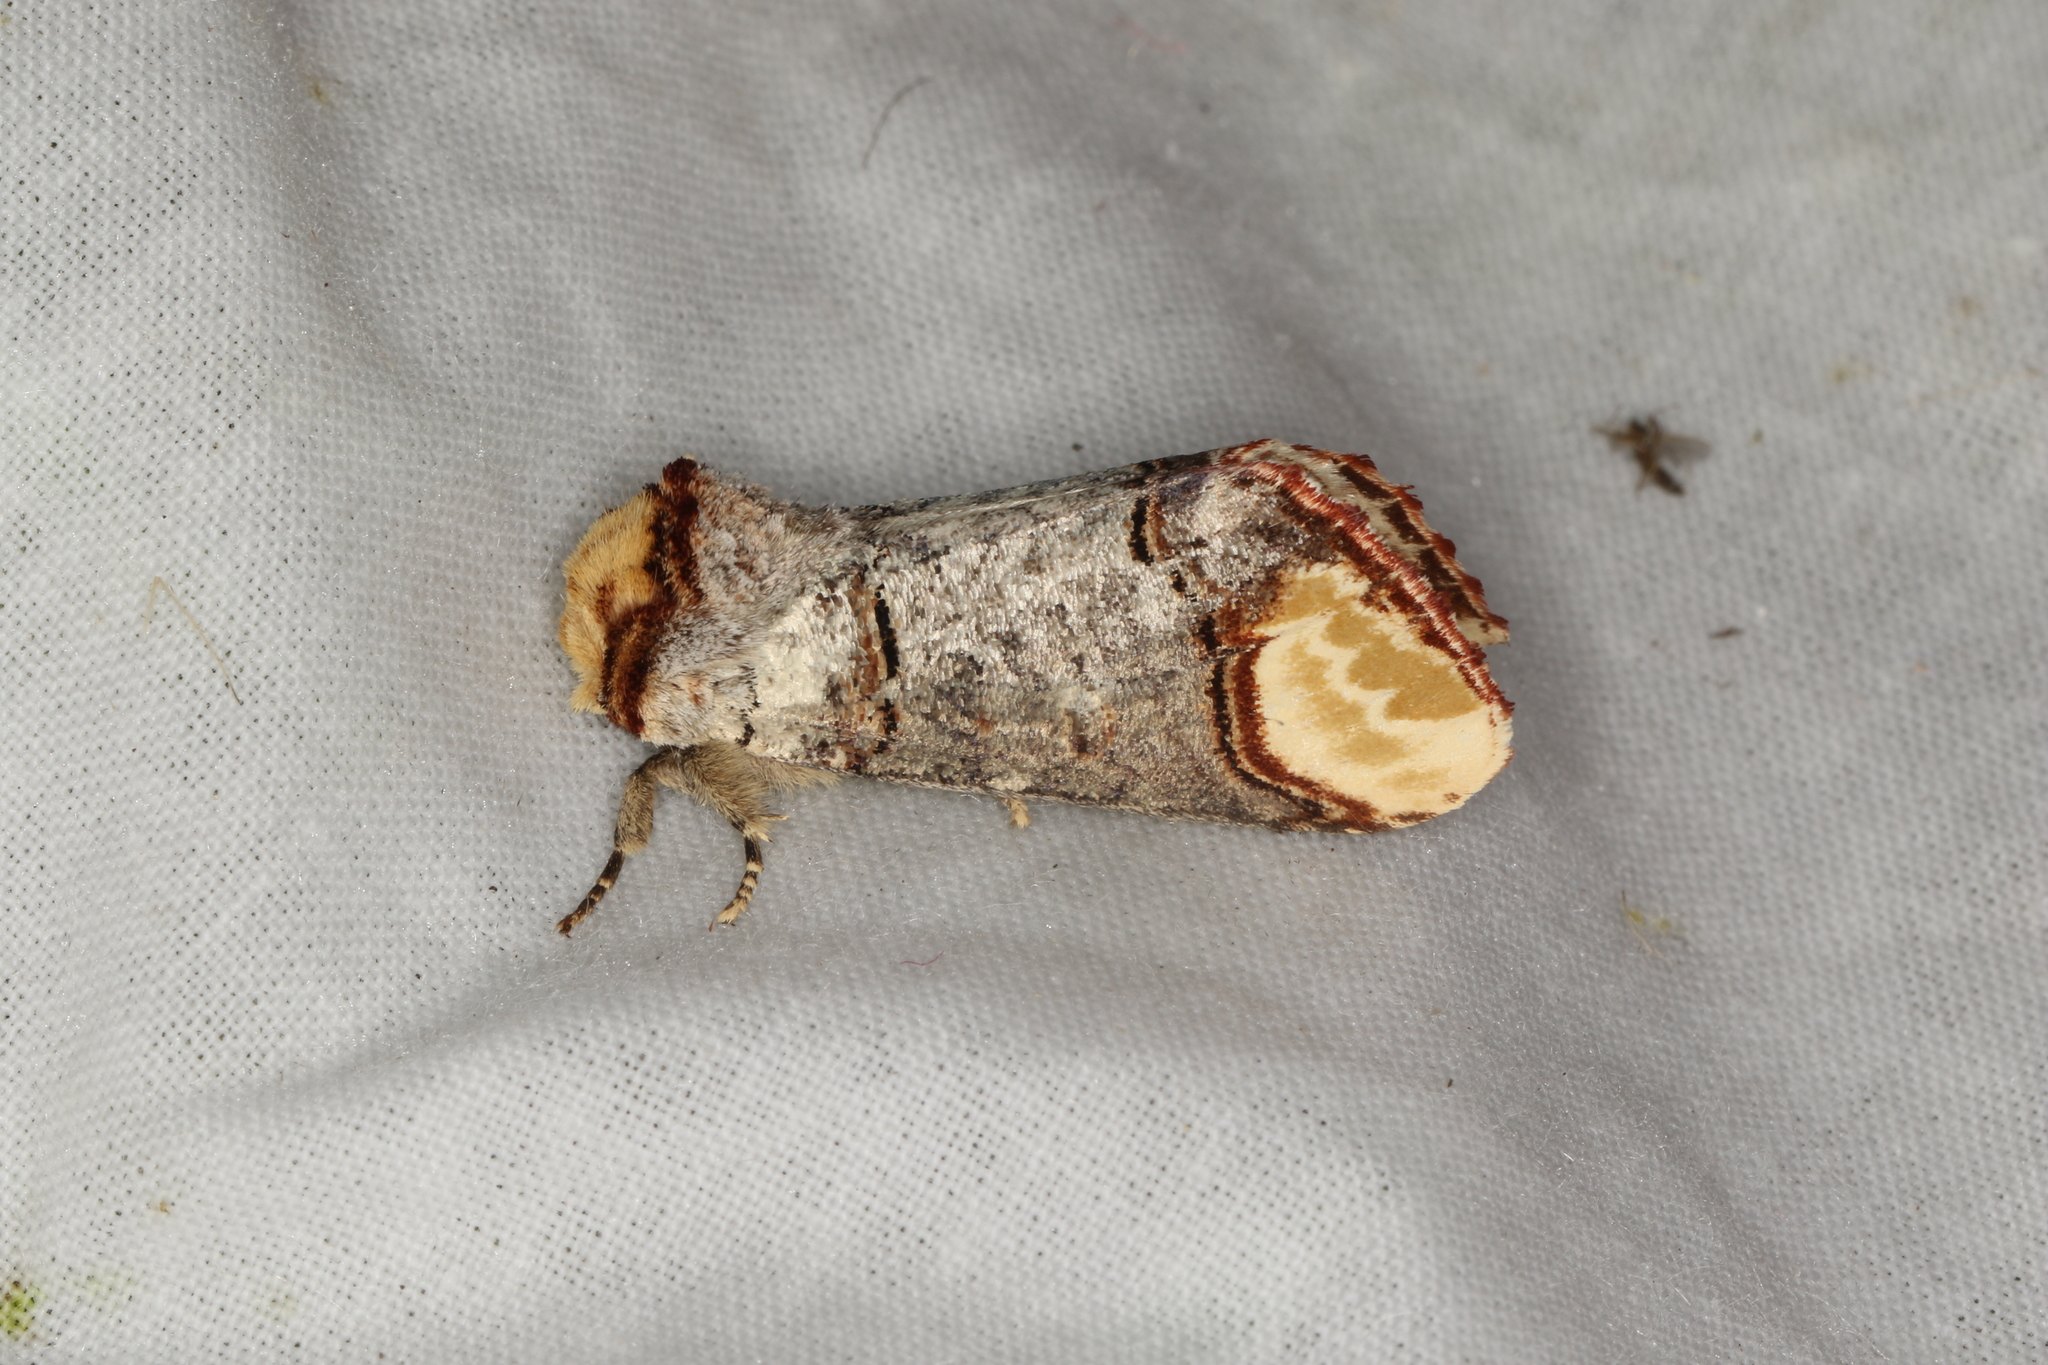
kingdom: Animalia
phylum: Arthropoda
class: Insecta
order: Lepidoptera
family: Notodontidae
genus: Phalera
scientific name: Phalera bucephala
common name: Buff-tip
